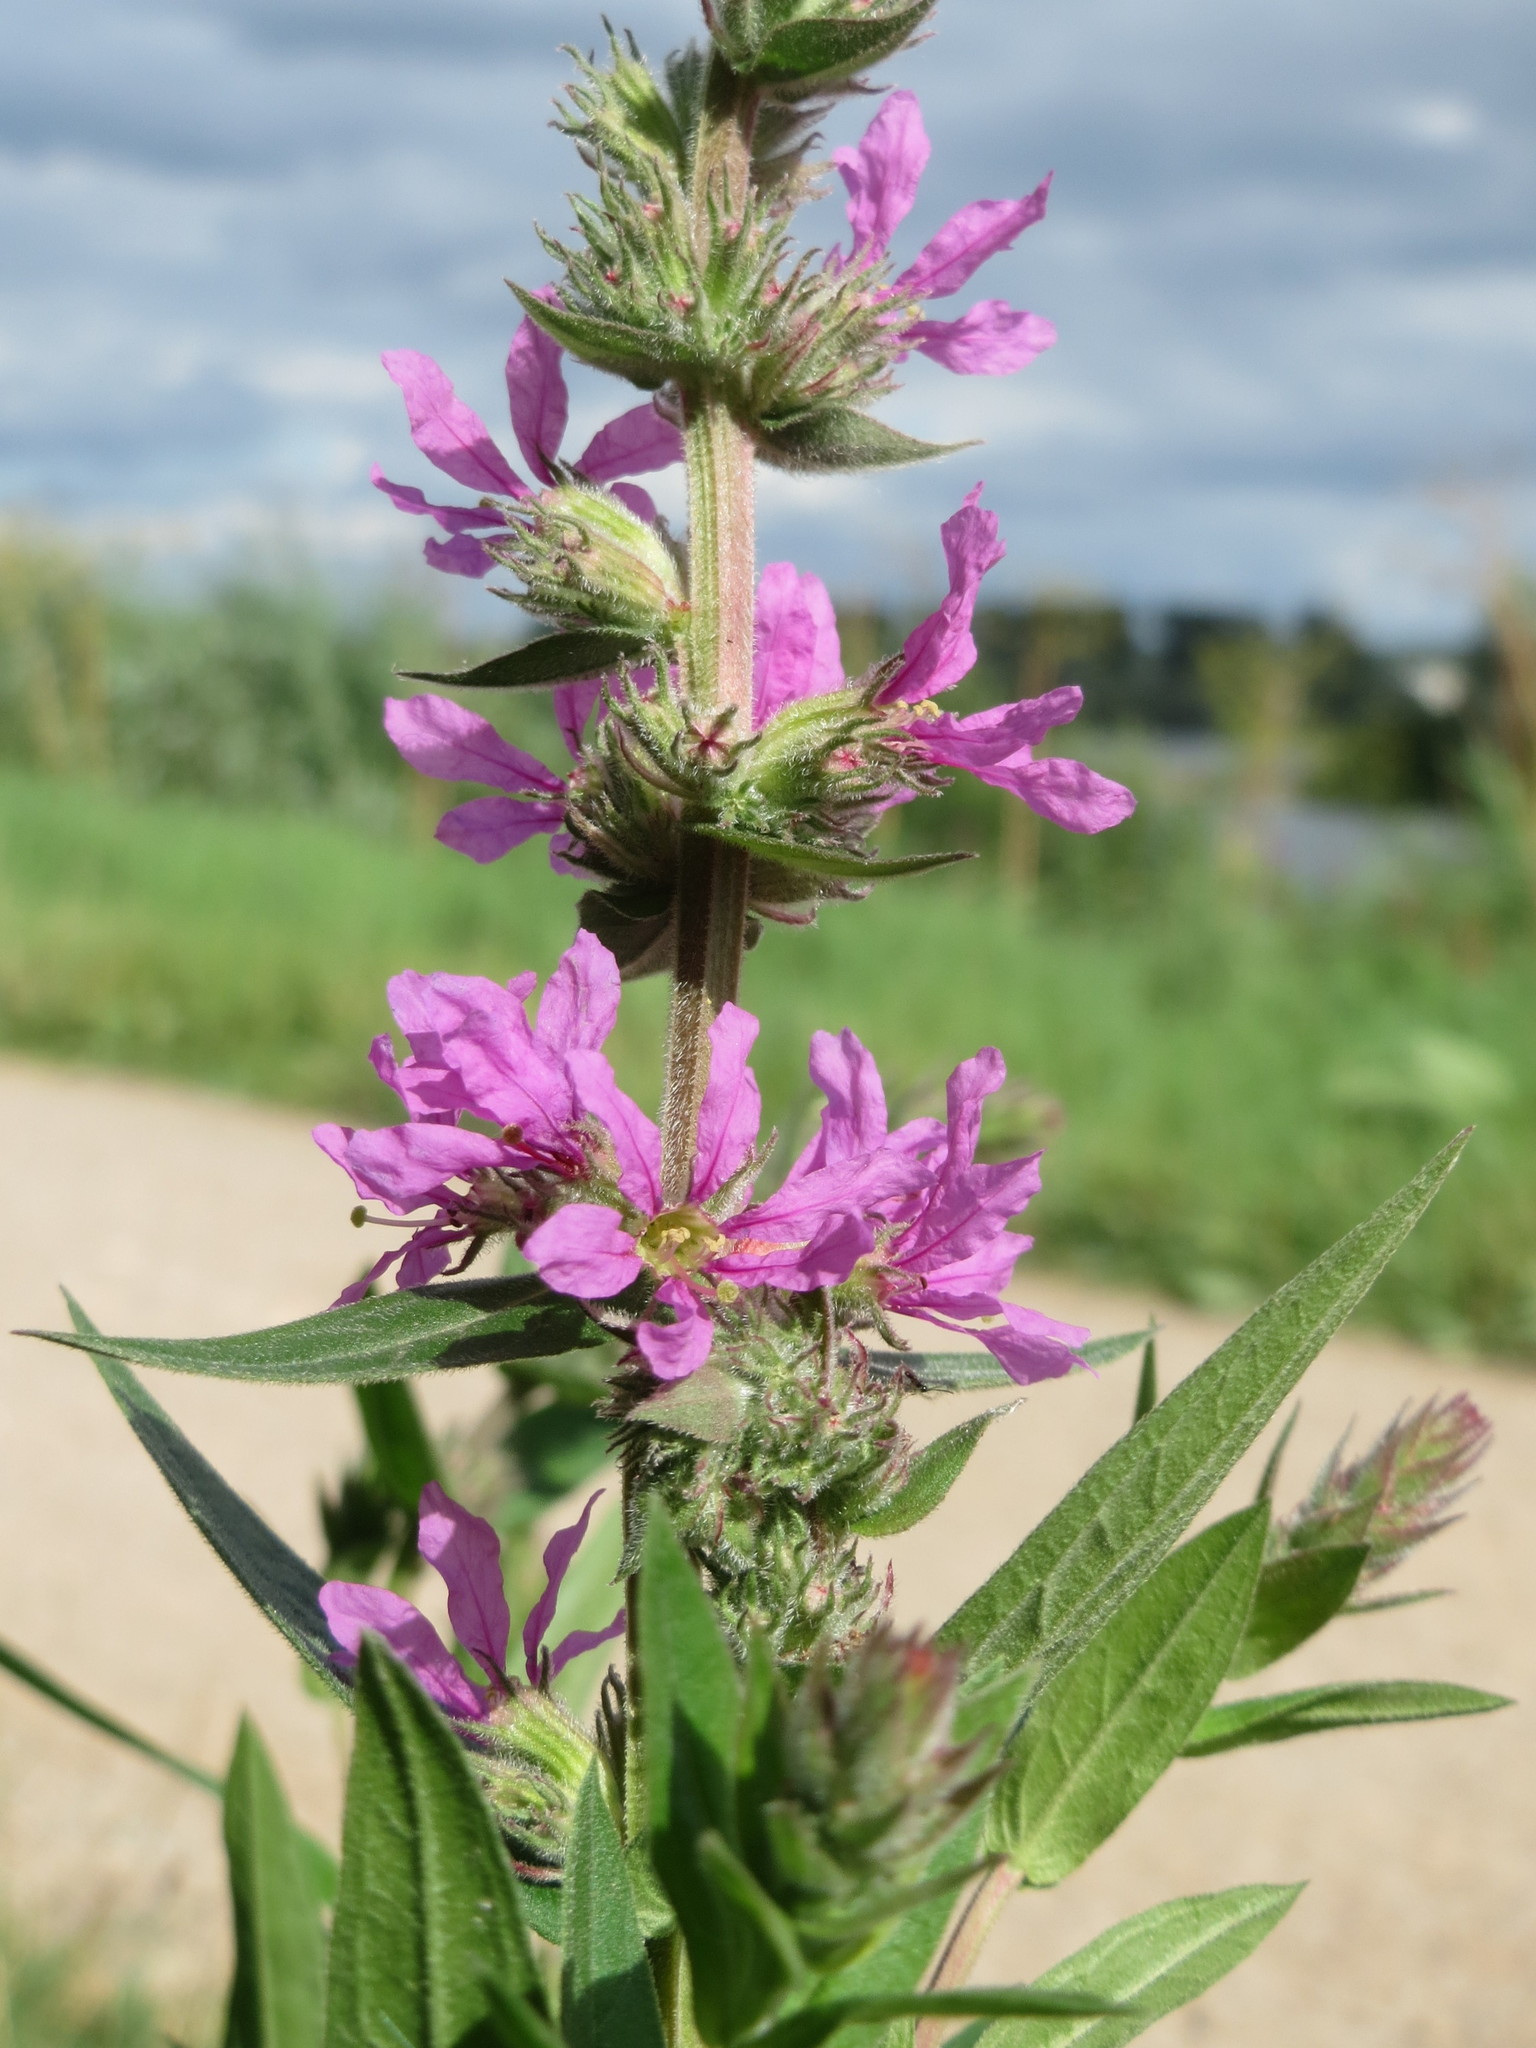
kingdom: Plantae
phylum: Tracheophyta
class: Magnoliopsida
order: Myrtales
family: Lythraceae
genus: Lythrum
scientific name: Lythrum salicaria
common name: Purple loosestrife
